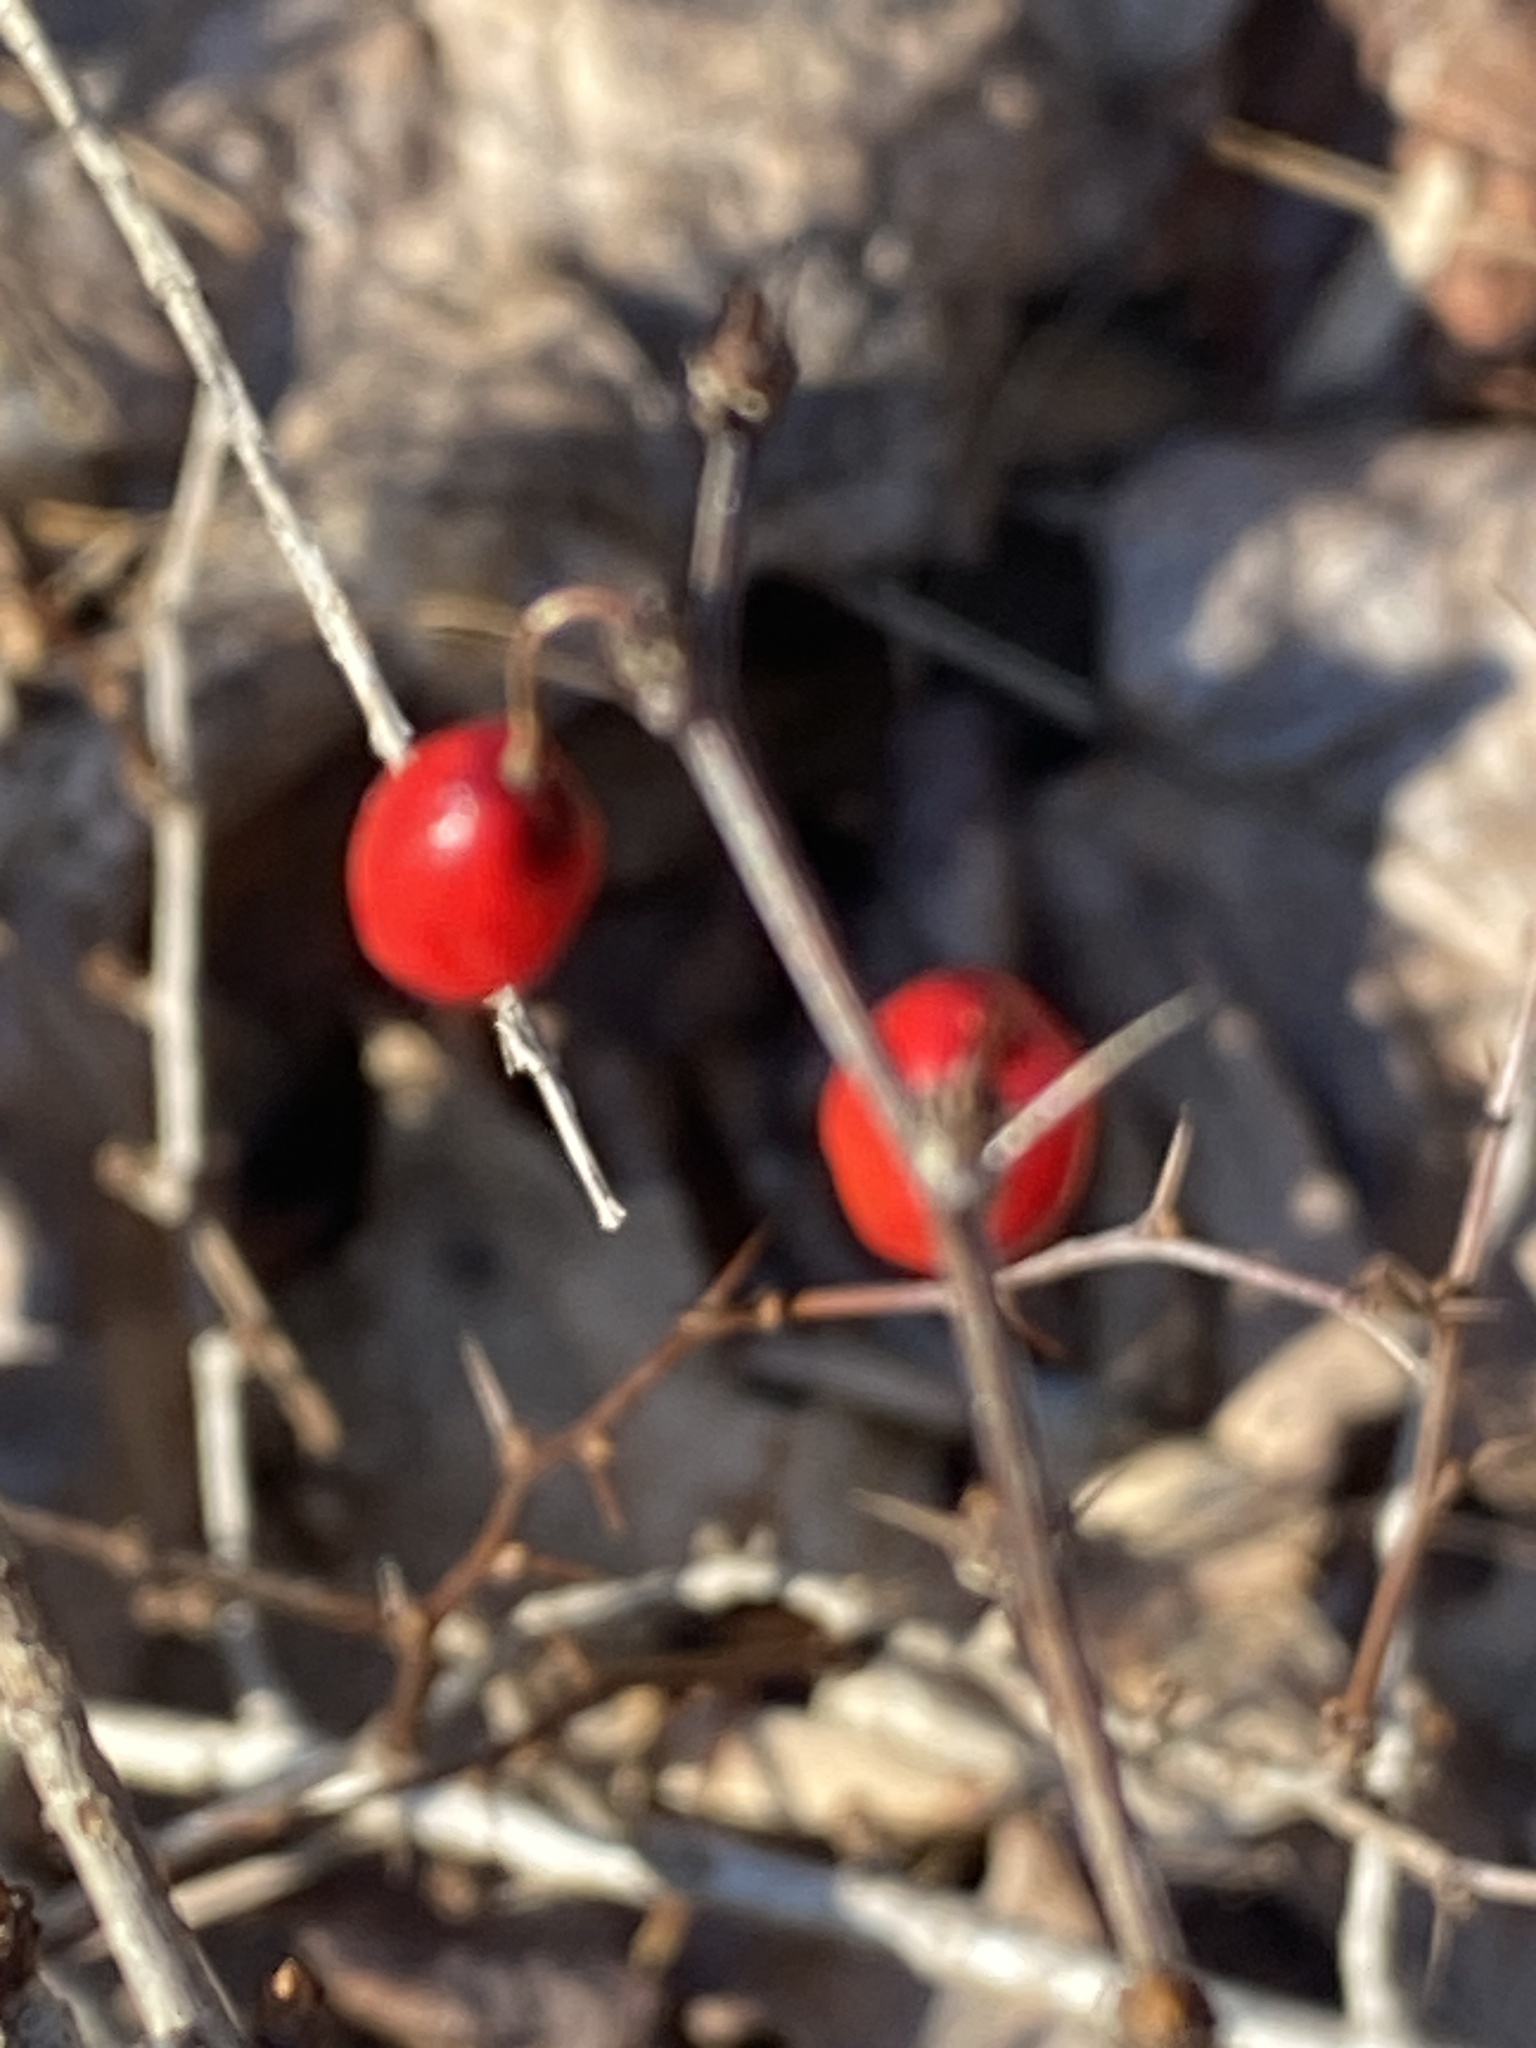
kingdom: Plantae
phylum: Tracheophyta
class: Magnoliopsida
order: Ranunculales
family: Berberidaceae
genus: Berberis
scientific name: Berberis thunbergii
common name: Japanese barberry
